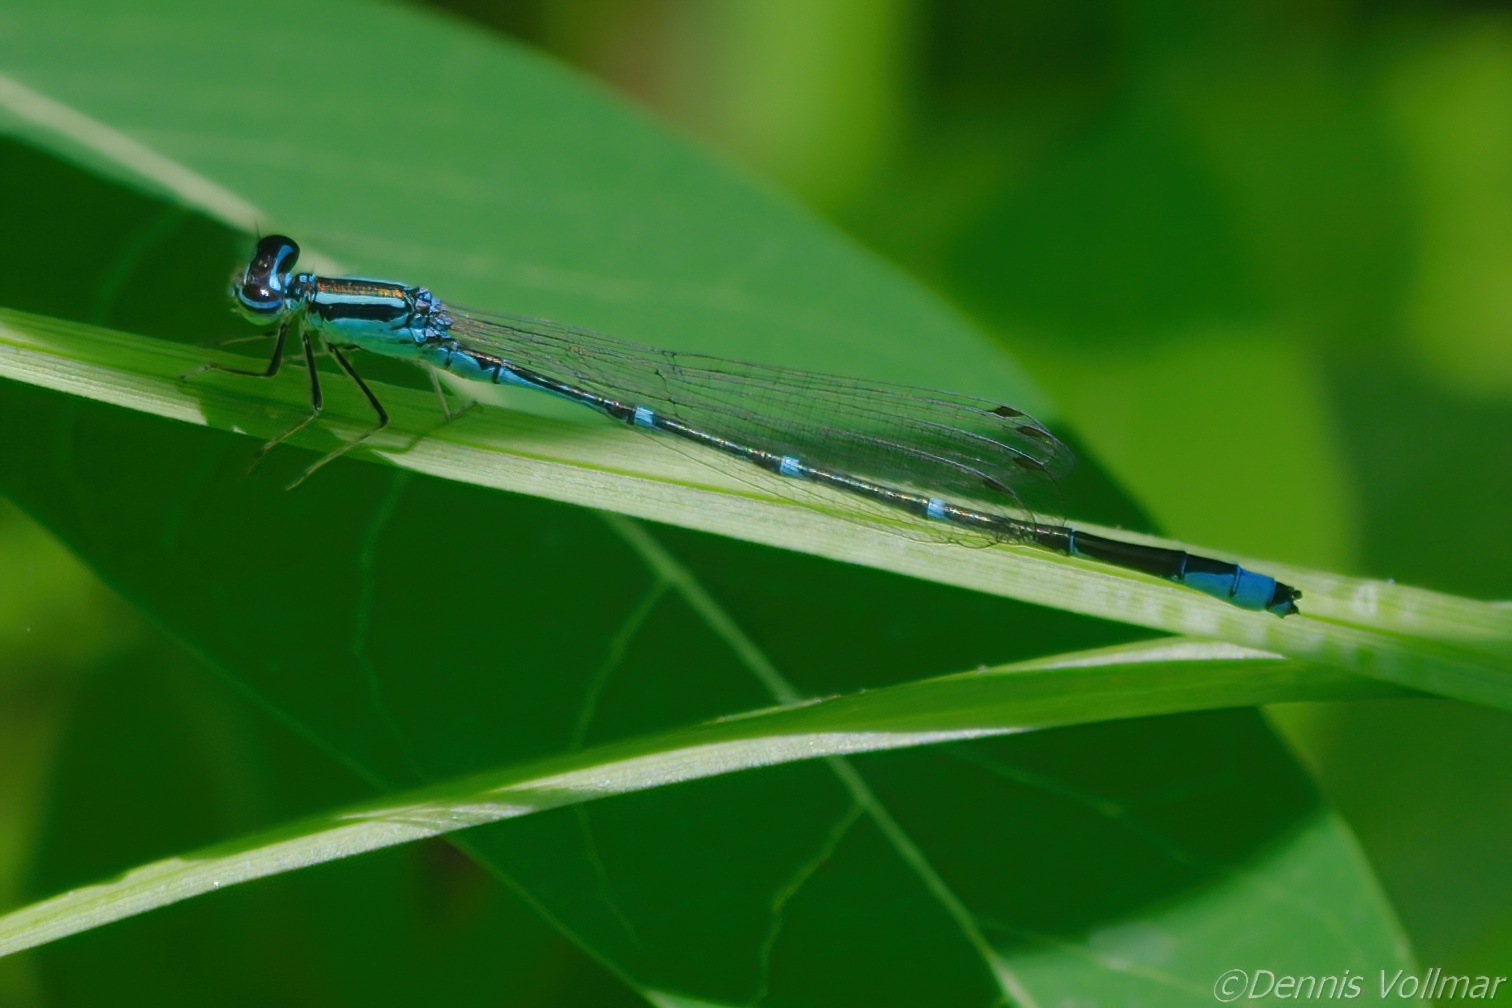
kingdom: Animalia
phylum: Arthropoda
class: Insecta
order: Odonata
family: Coenagrionidae
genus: Enallagma
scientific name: Enallagma exsulans
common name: Stream bluet
